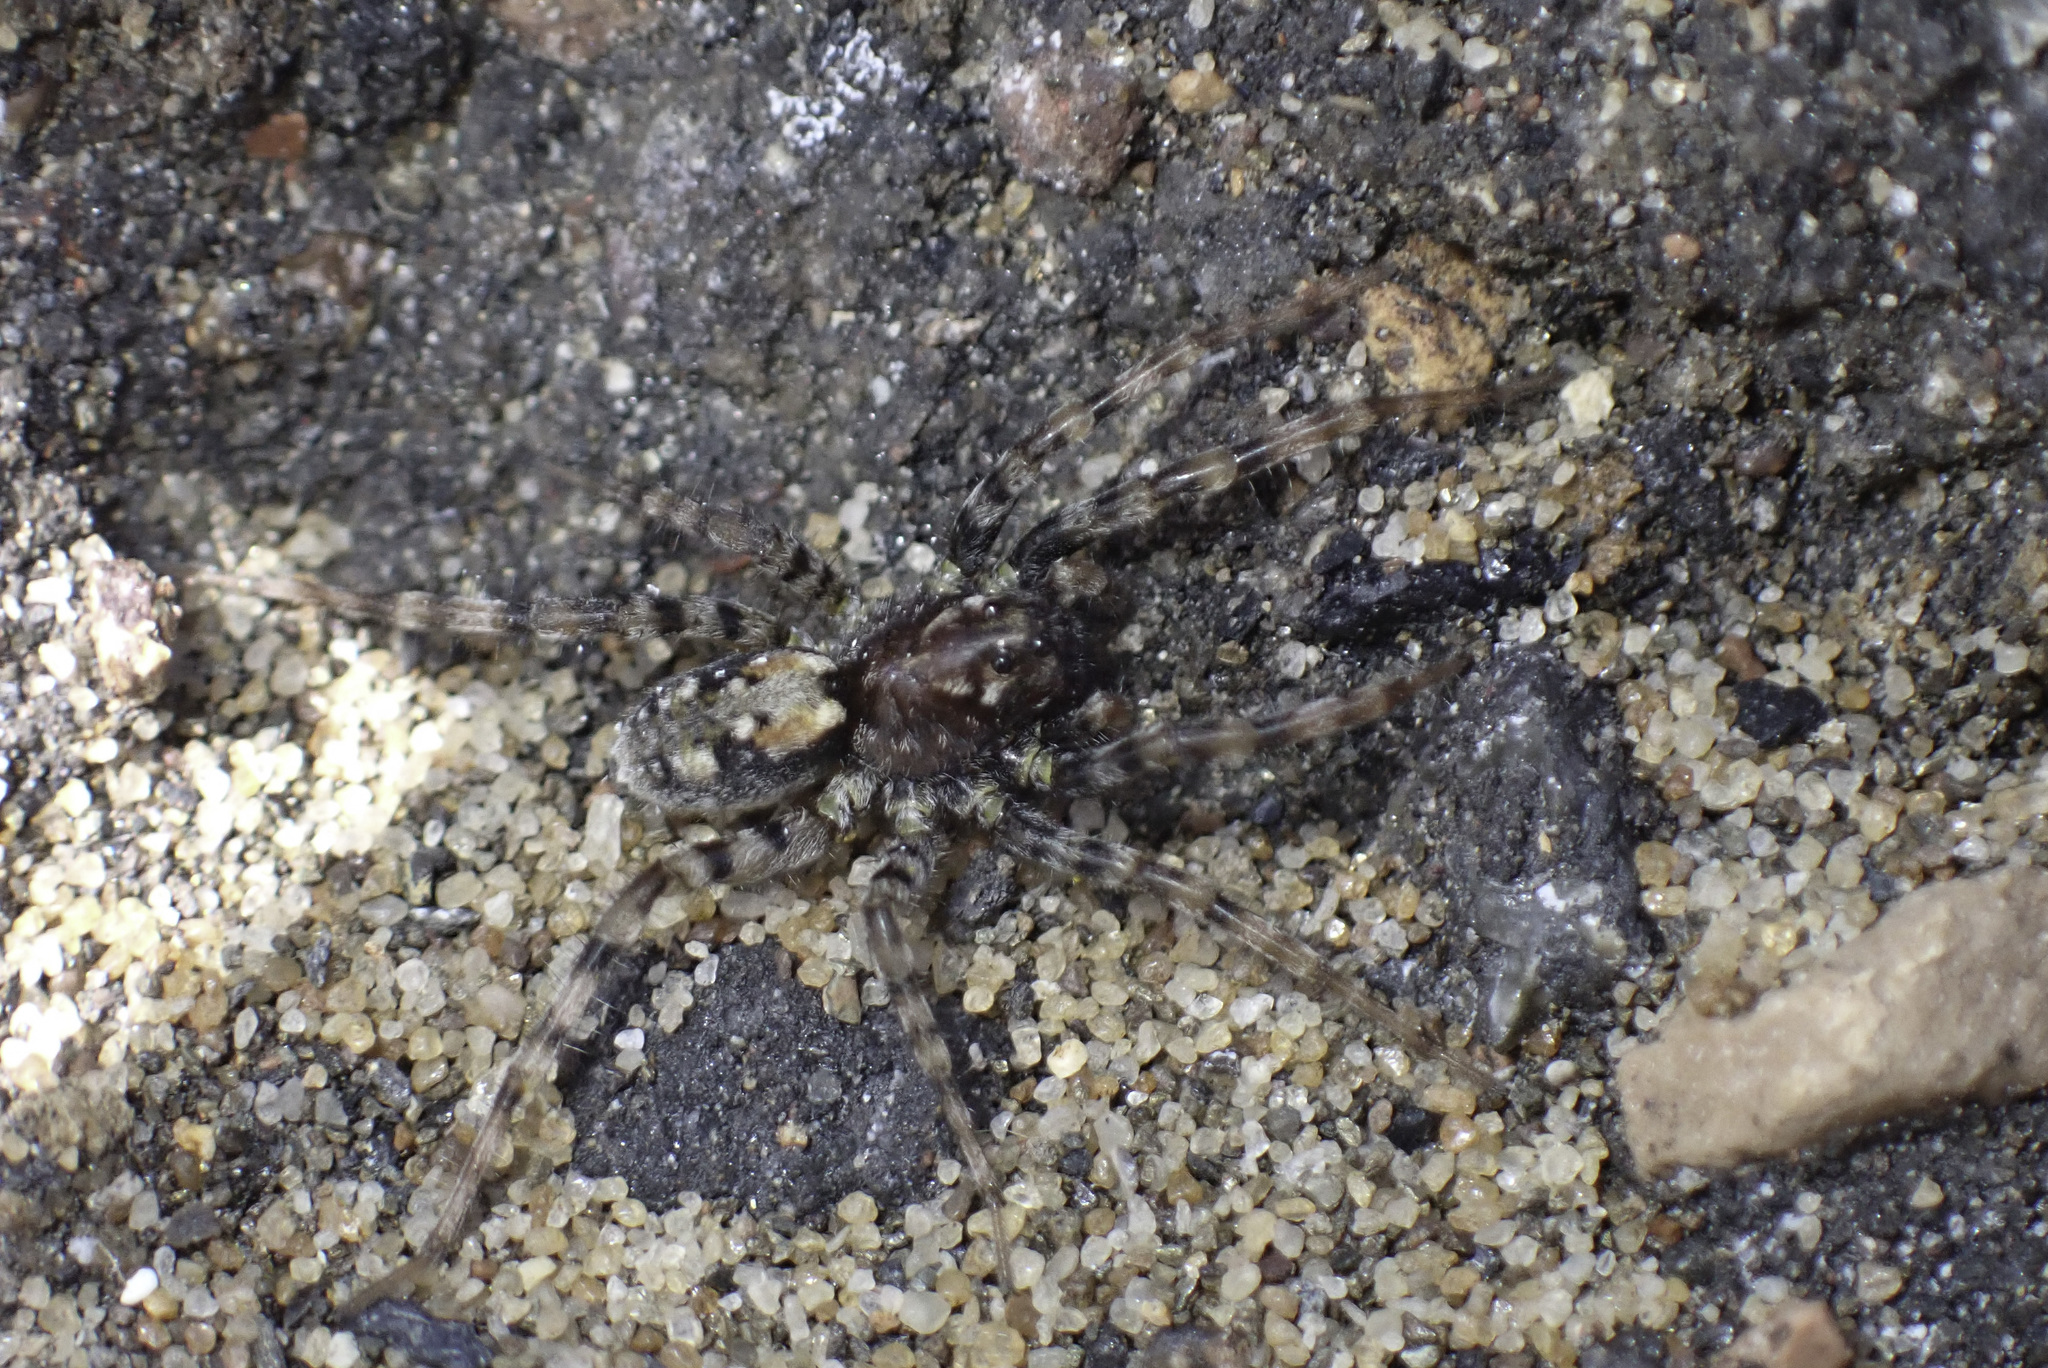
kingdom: Animalia
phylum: Arthropoda
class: Arachnida
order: Araneae
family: Lycosidae
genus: Arctosa
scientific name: Arctosa perita
